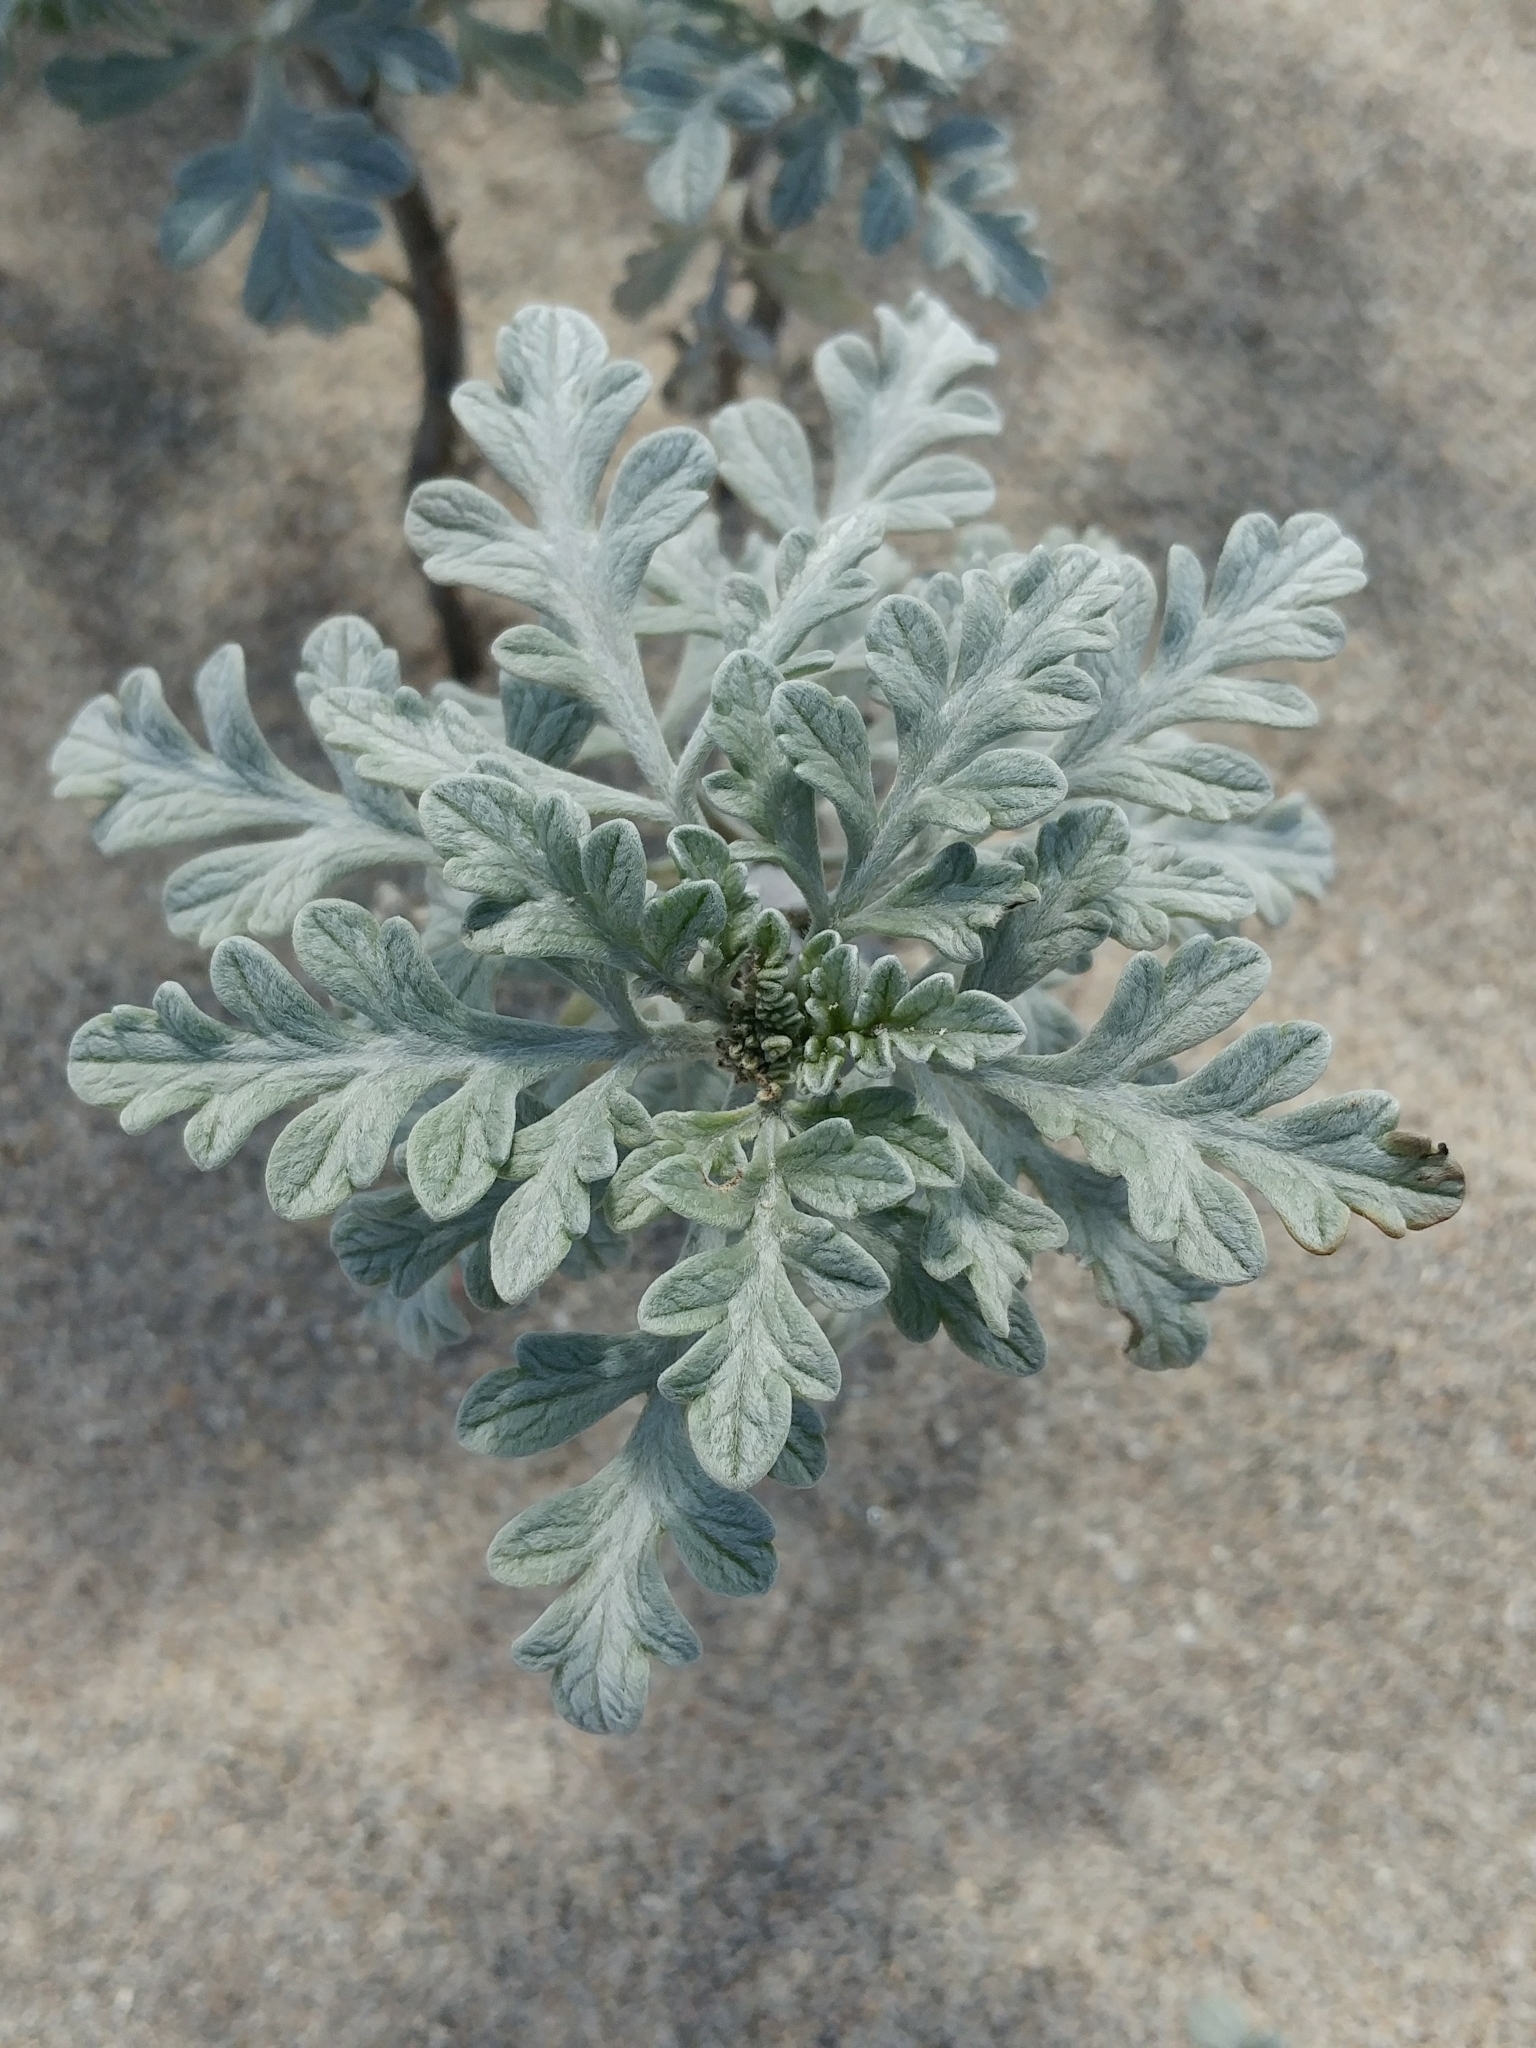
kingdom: Plantae
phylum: Tracheophyta
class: Magnoliopsida
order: Asterales
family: Asteraceae
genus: Ambrosia
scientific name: Ambrosia chamissonis
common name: Beachbur
